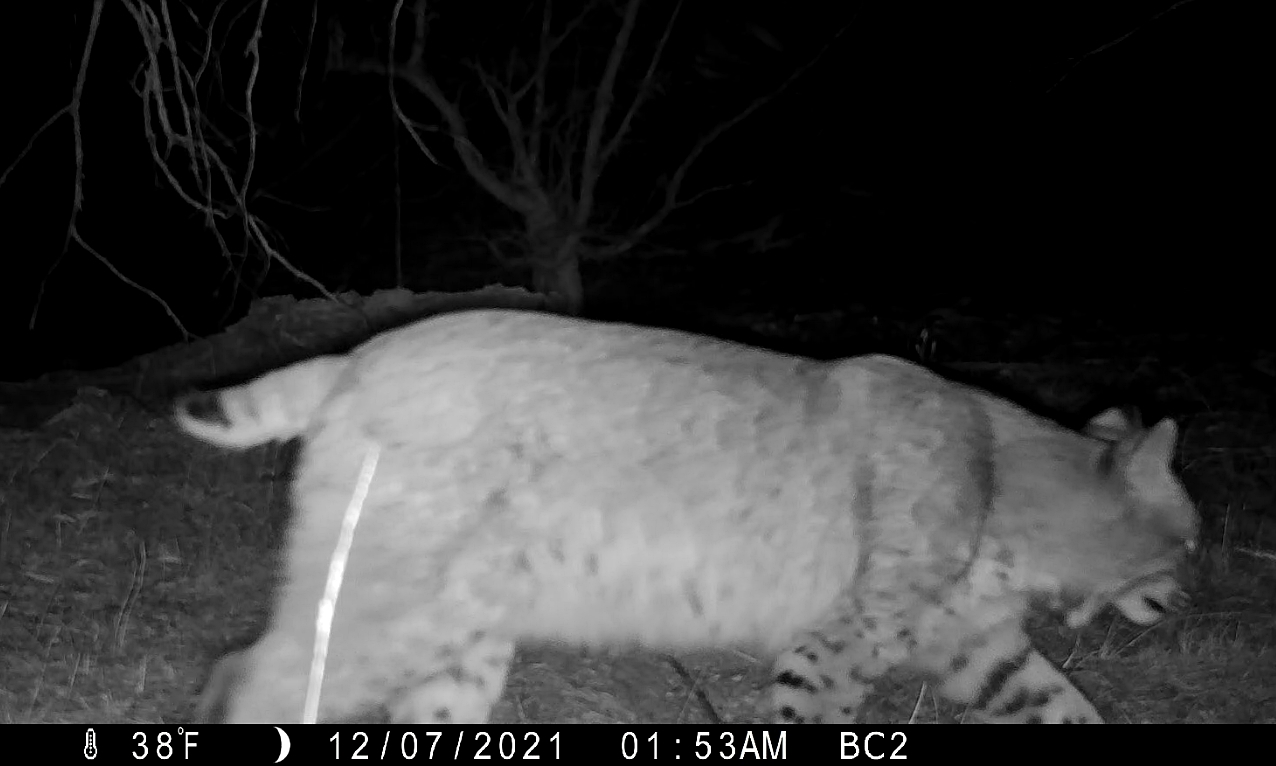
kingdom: Animalia
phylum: Chordata
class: Mammalia
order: Carnivora
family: Felidae
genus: Lynx
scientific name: Lynx rufus
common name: Bobcat
